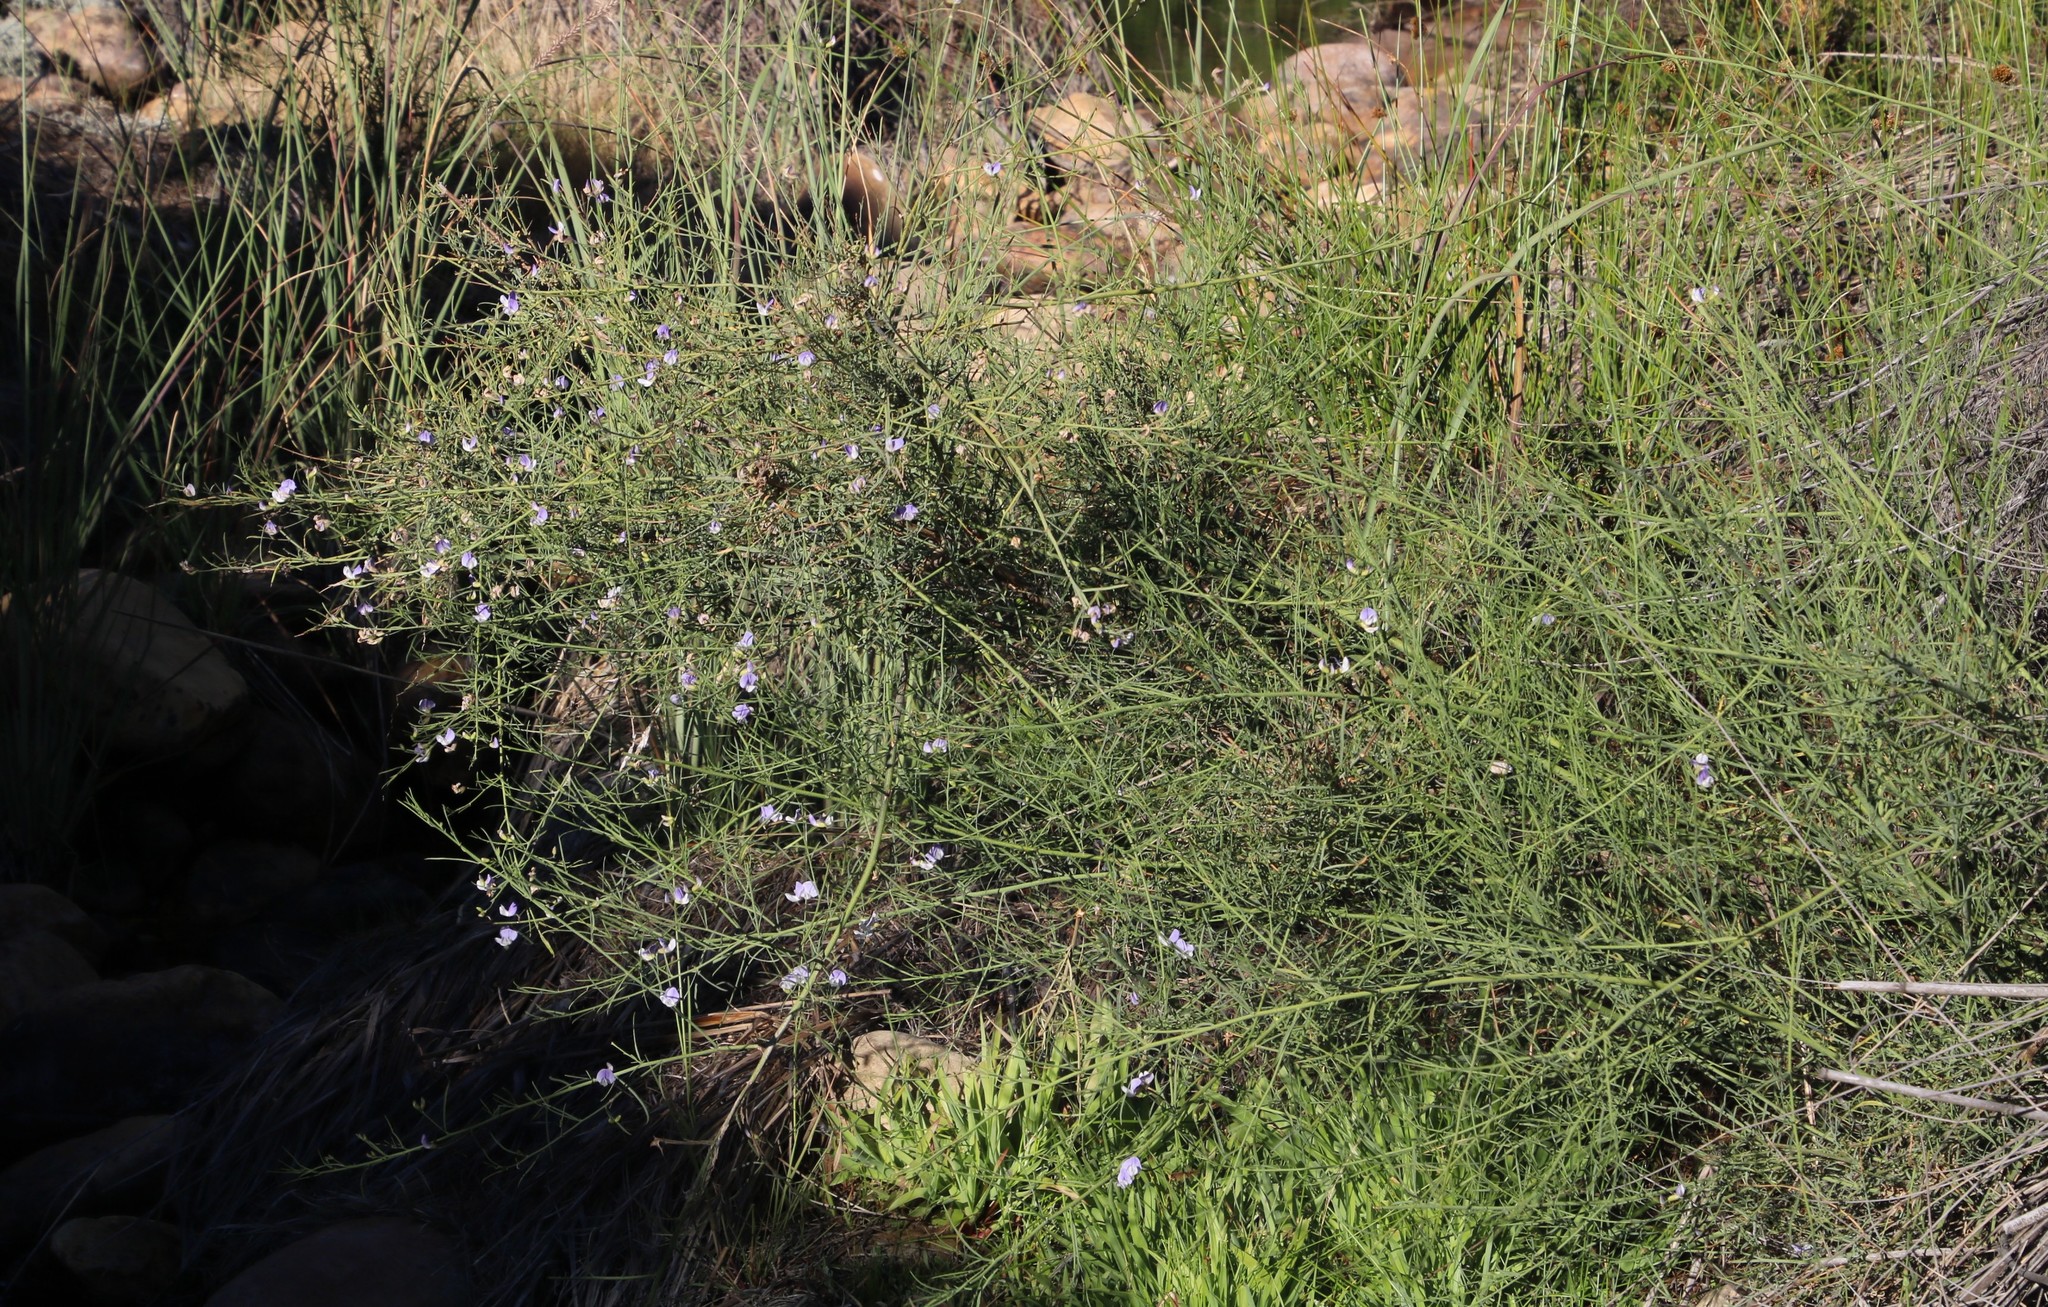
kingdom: Plantae
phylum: Tracheophyta
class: Magnoliopsida
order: Fabales
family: Fabaceae
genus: Psoralea
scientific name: Psoralea verrucosa
